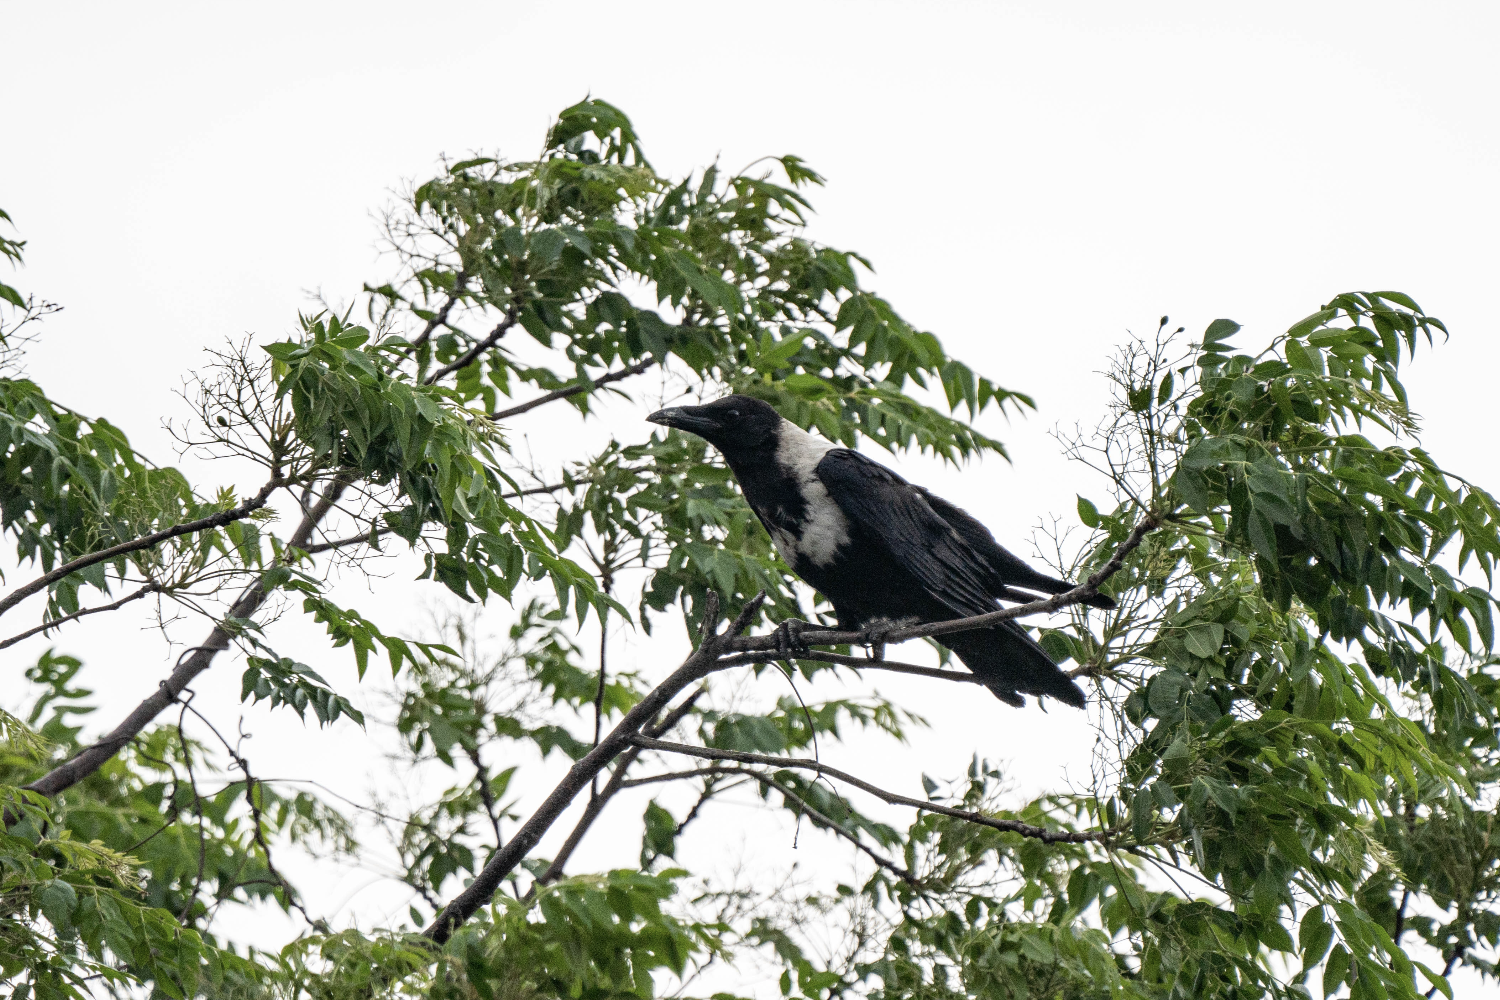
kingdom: Animalia
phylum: Chordata
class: Aves
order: Passeriformes
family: Corvidae
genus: Corvus
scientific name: Corvus pectoralis
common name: Collared crow
